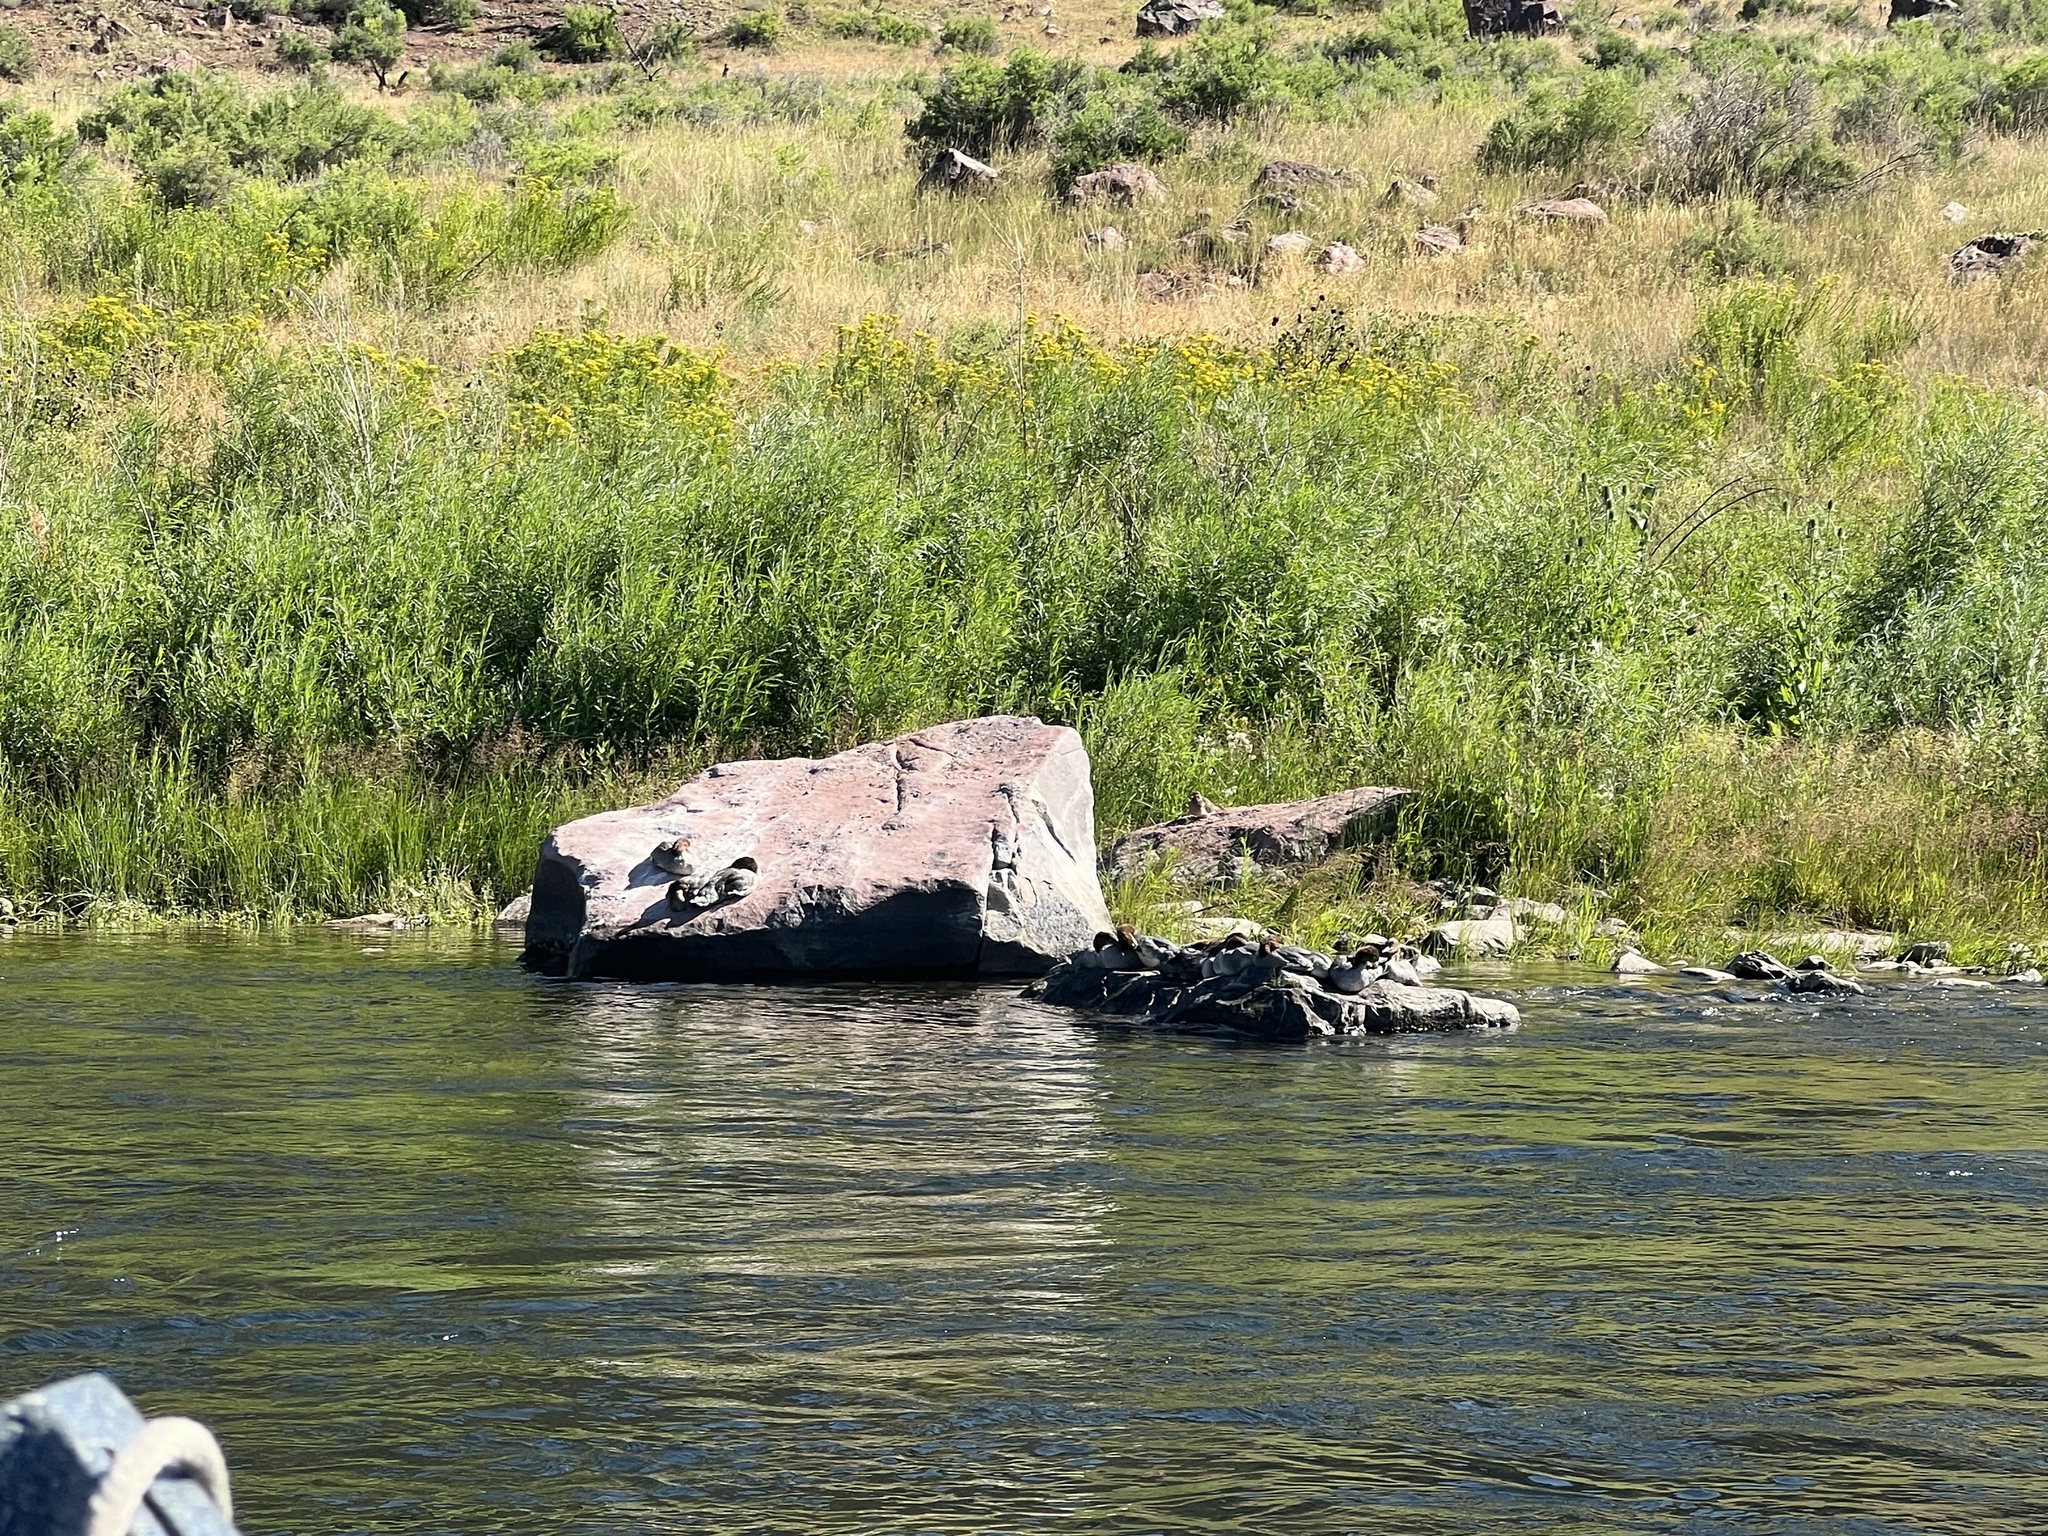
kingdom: Animalia
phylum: Chordata
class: Aves
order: Anseriformes
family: Anatidae
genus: Mergus
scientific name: Mergus merganser
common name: Common merganser
